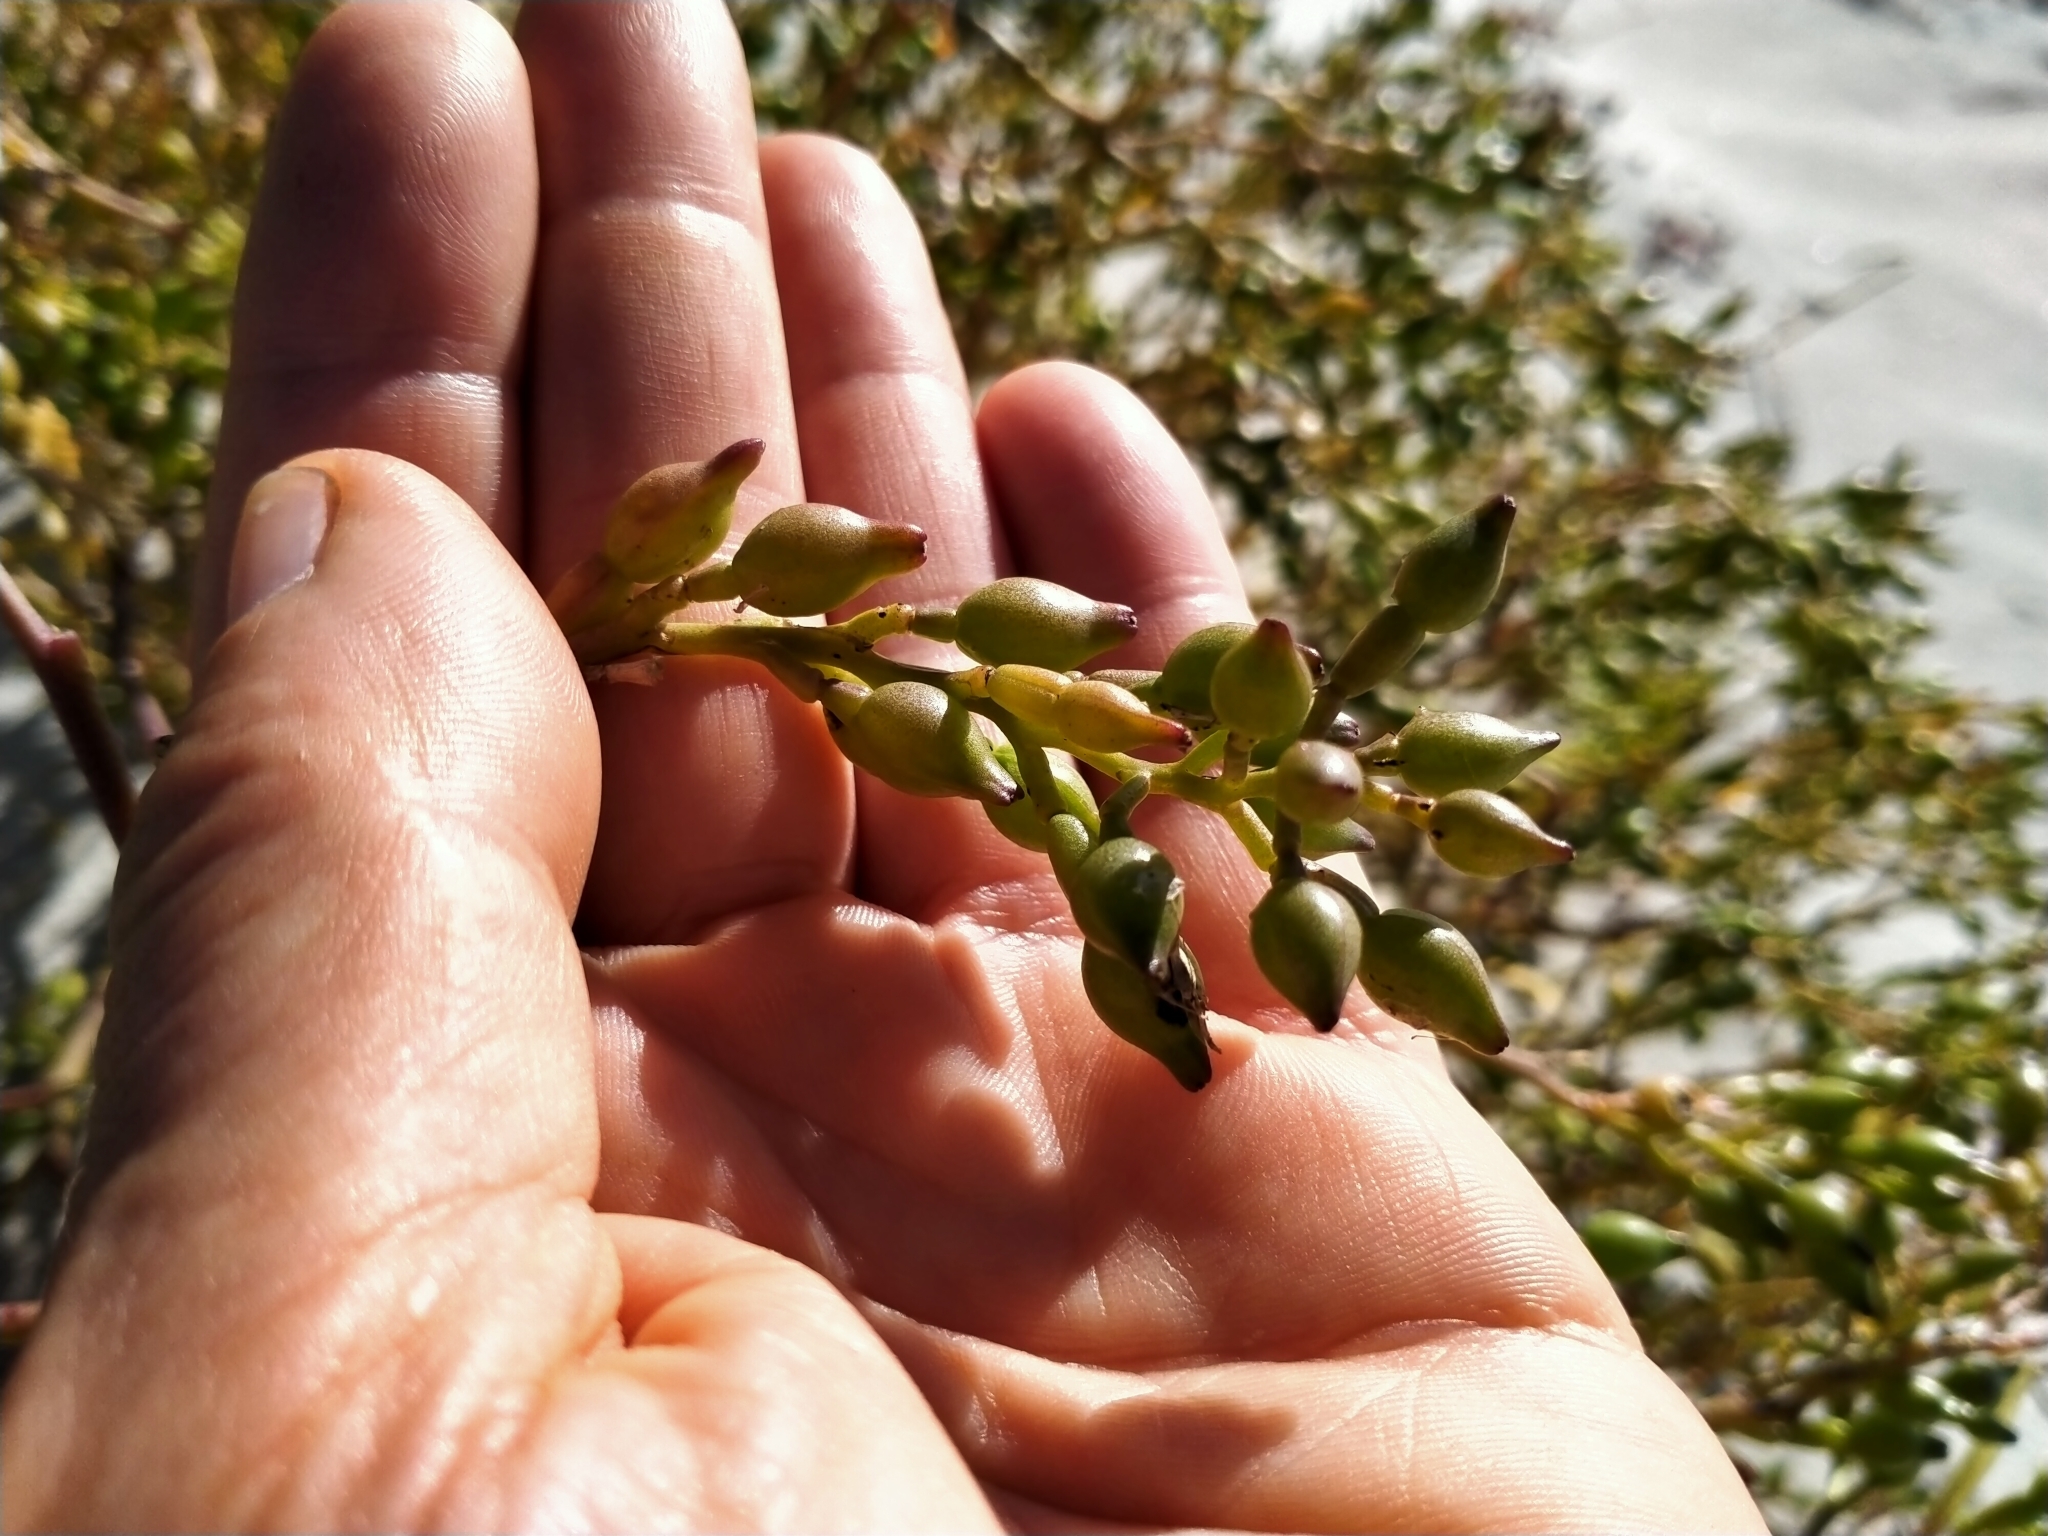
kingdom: Plantae
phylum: Tracheophyta
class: Magnoliopsida
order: Brassicales
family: Brassicaceae
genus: Cakile
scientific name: Cakile edentula
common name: American sea rocket
